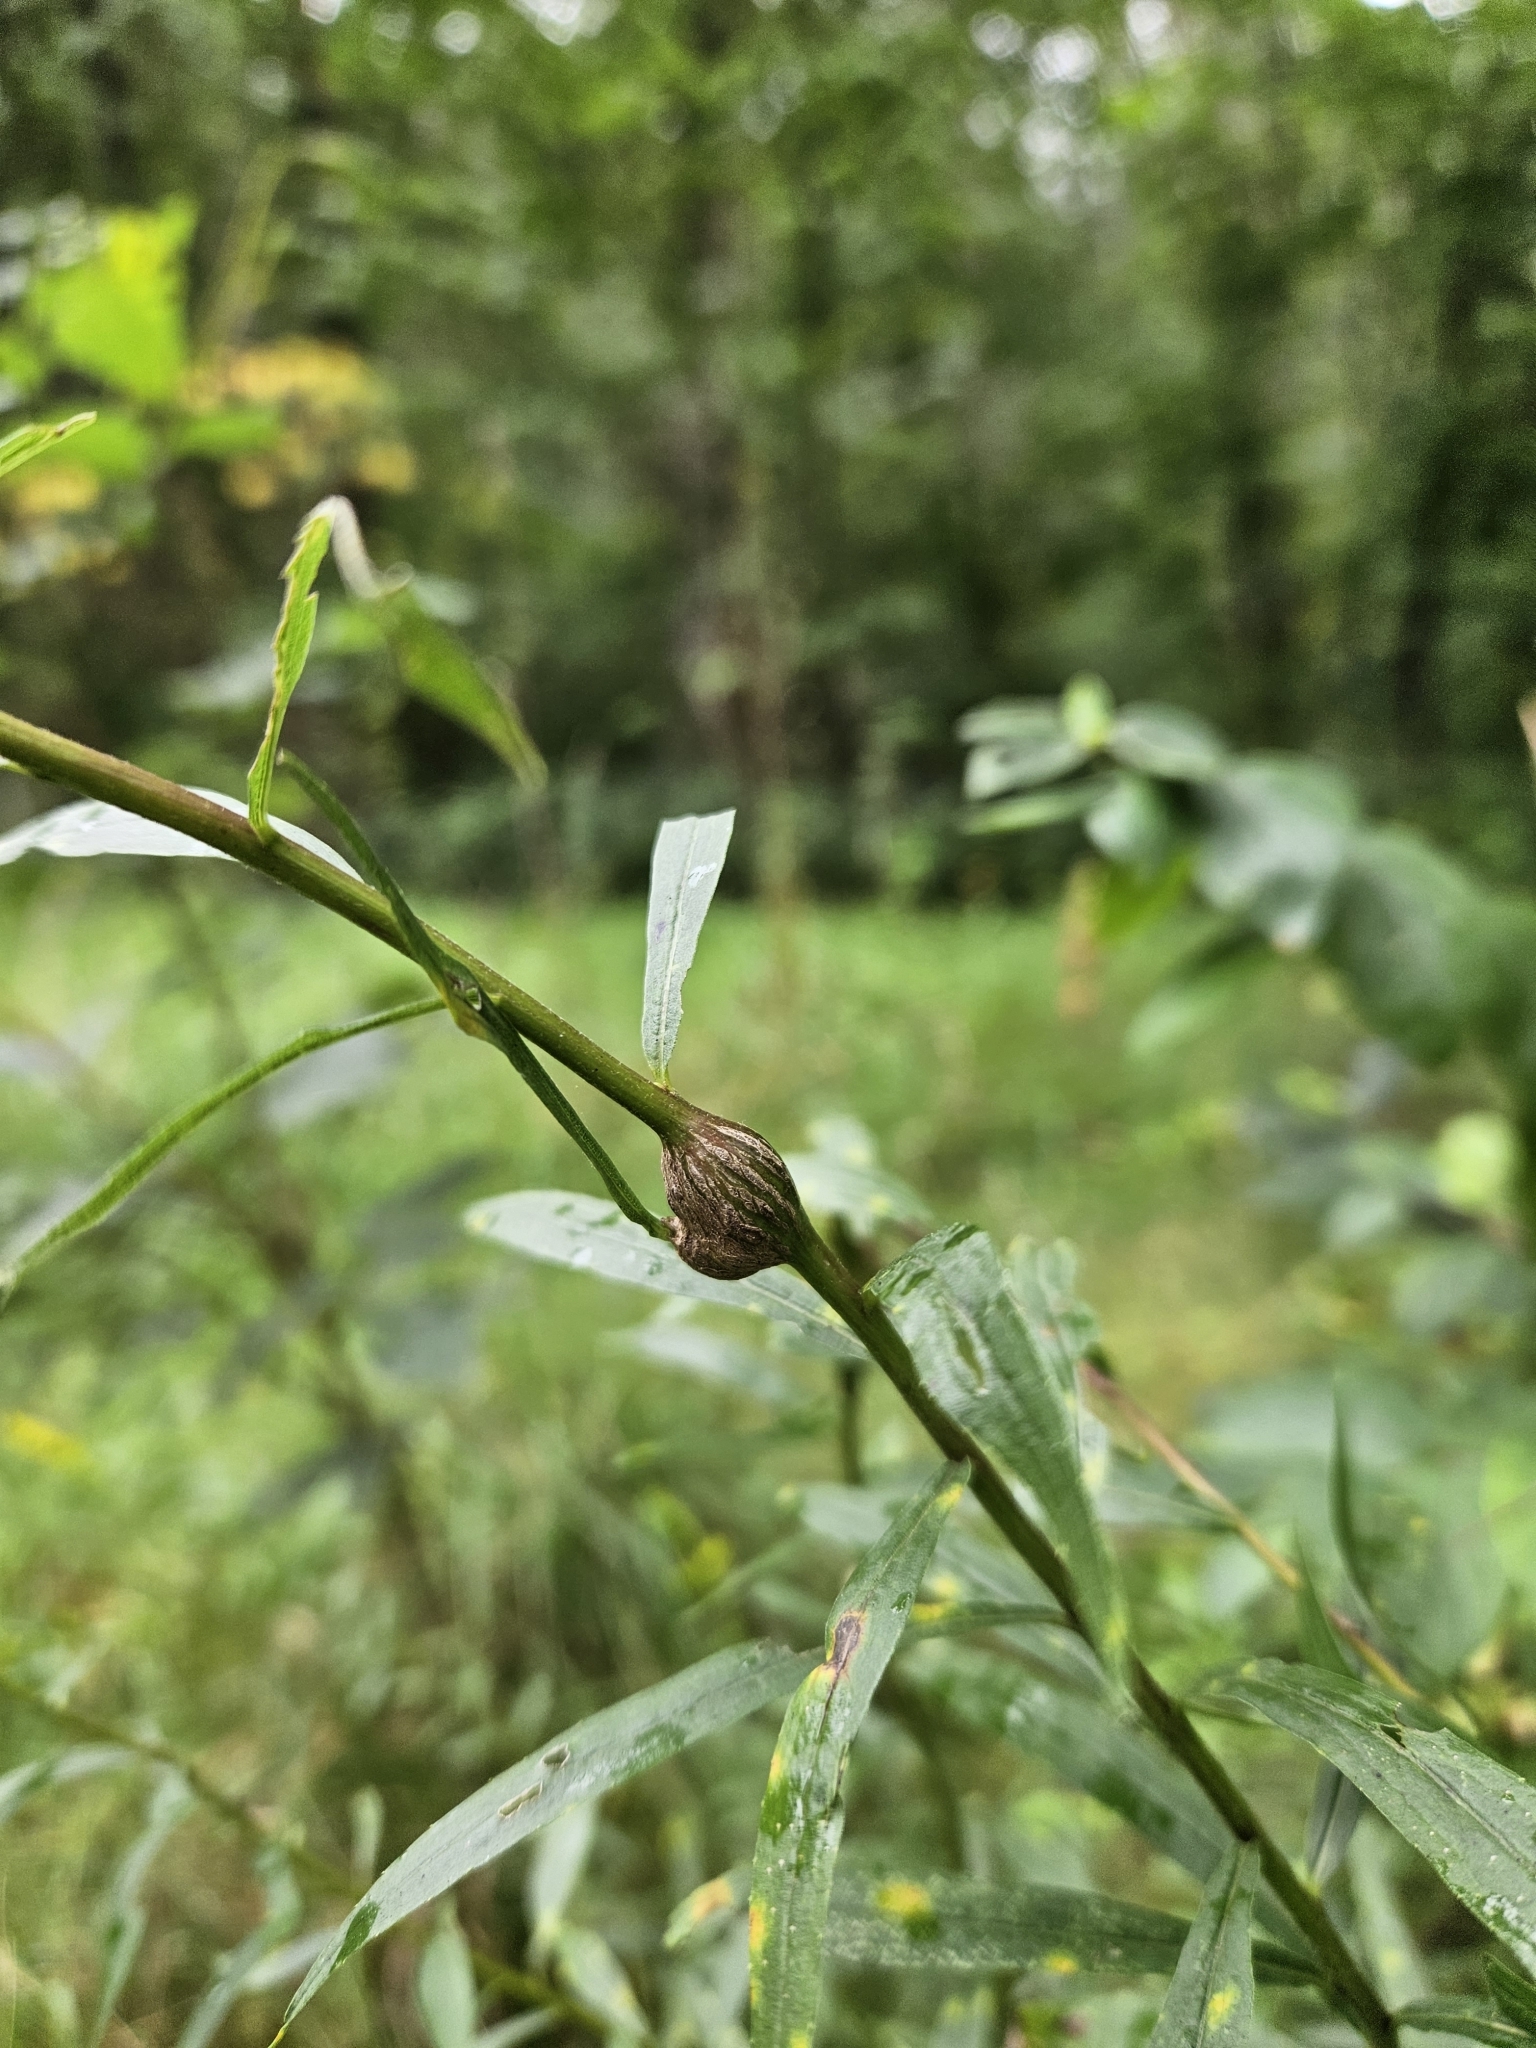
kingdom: Animalia
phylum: Arthropoda
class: Insecta
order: Diptera
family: Cecidomyiidae
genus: Lasioptera
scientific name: Lasioptera solidaginis
